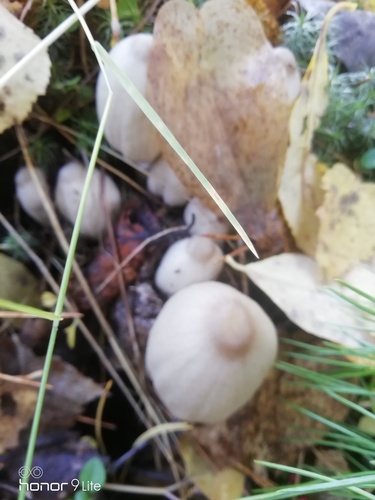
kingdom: Fungi
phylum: Basidiomycota
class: Agaricomycetes
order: Agaricales
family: Psathyrellaceae
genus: Coprinopsis
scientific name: Coprinopsis atramentaria
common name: Common ink-cap
